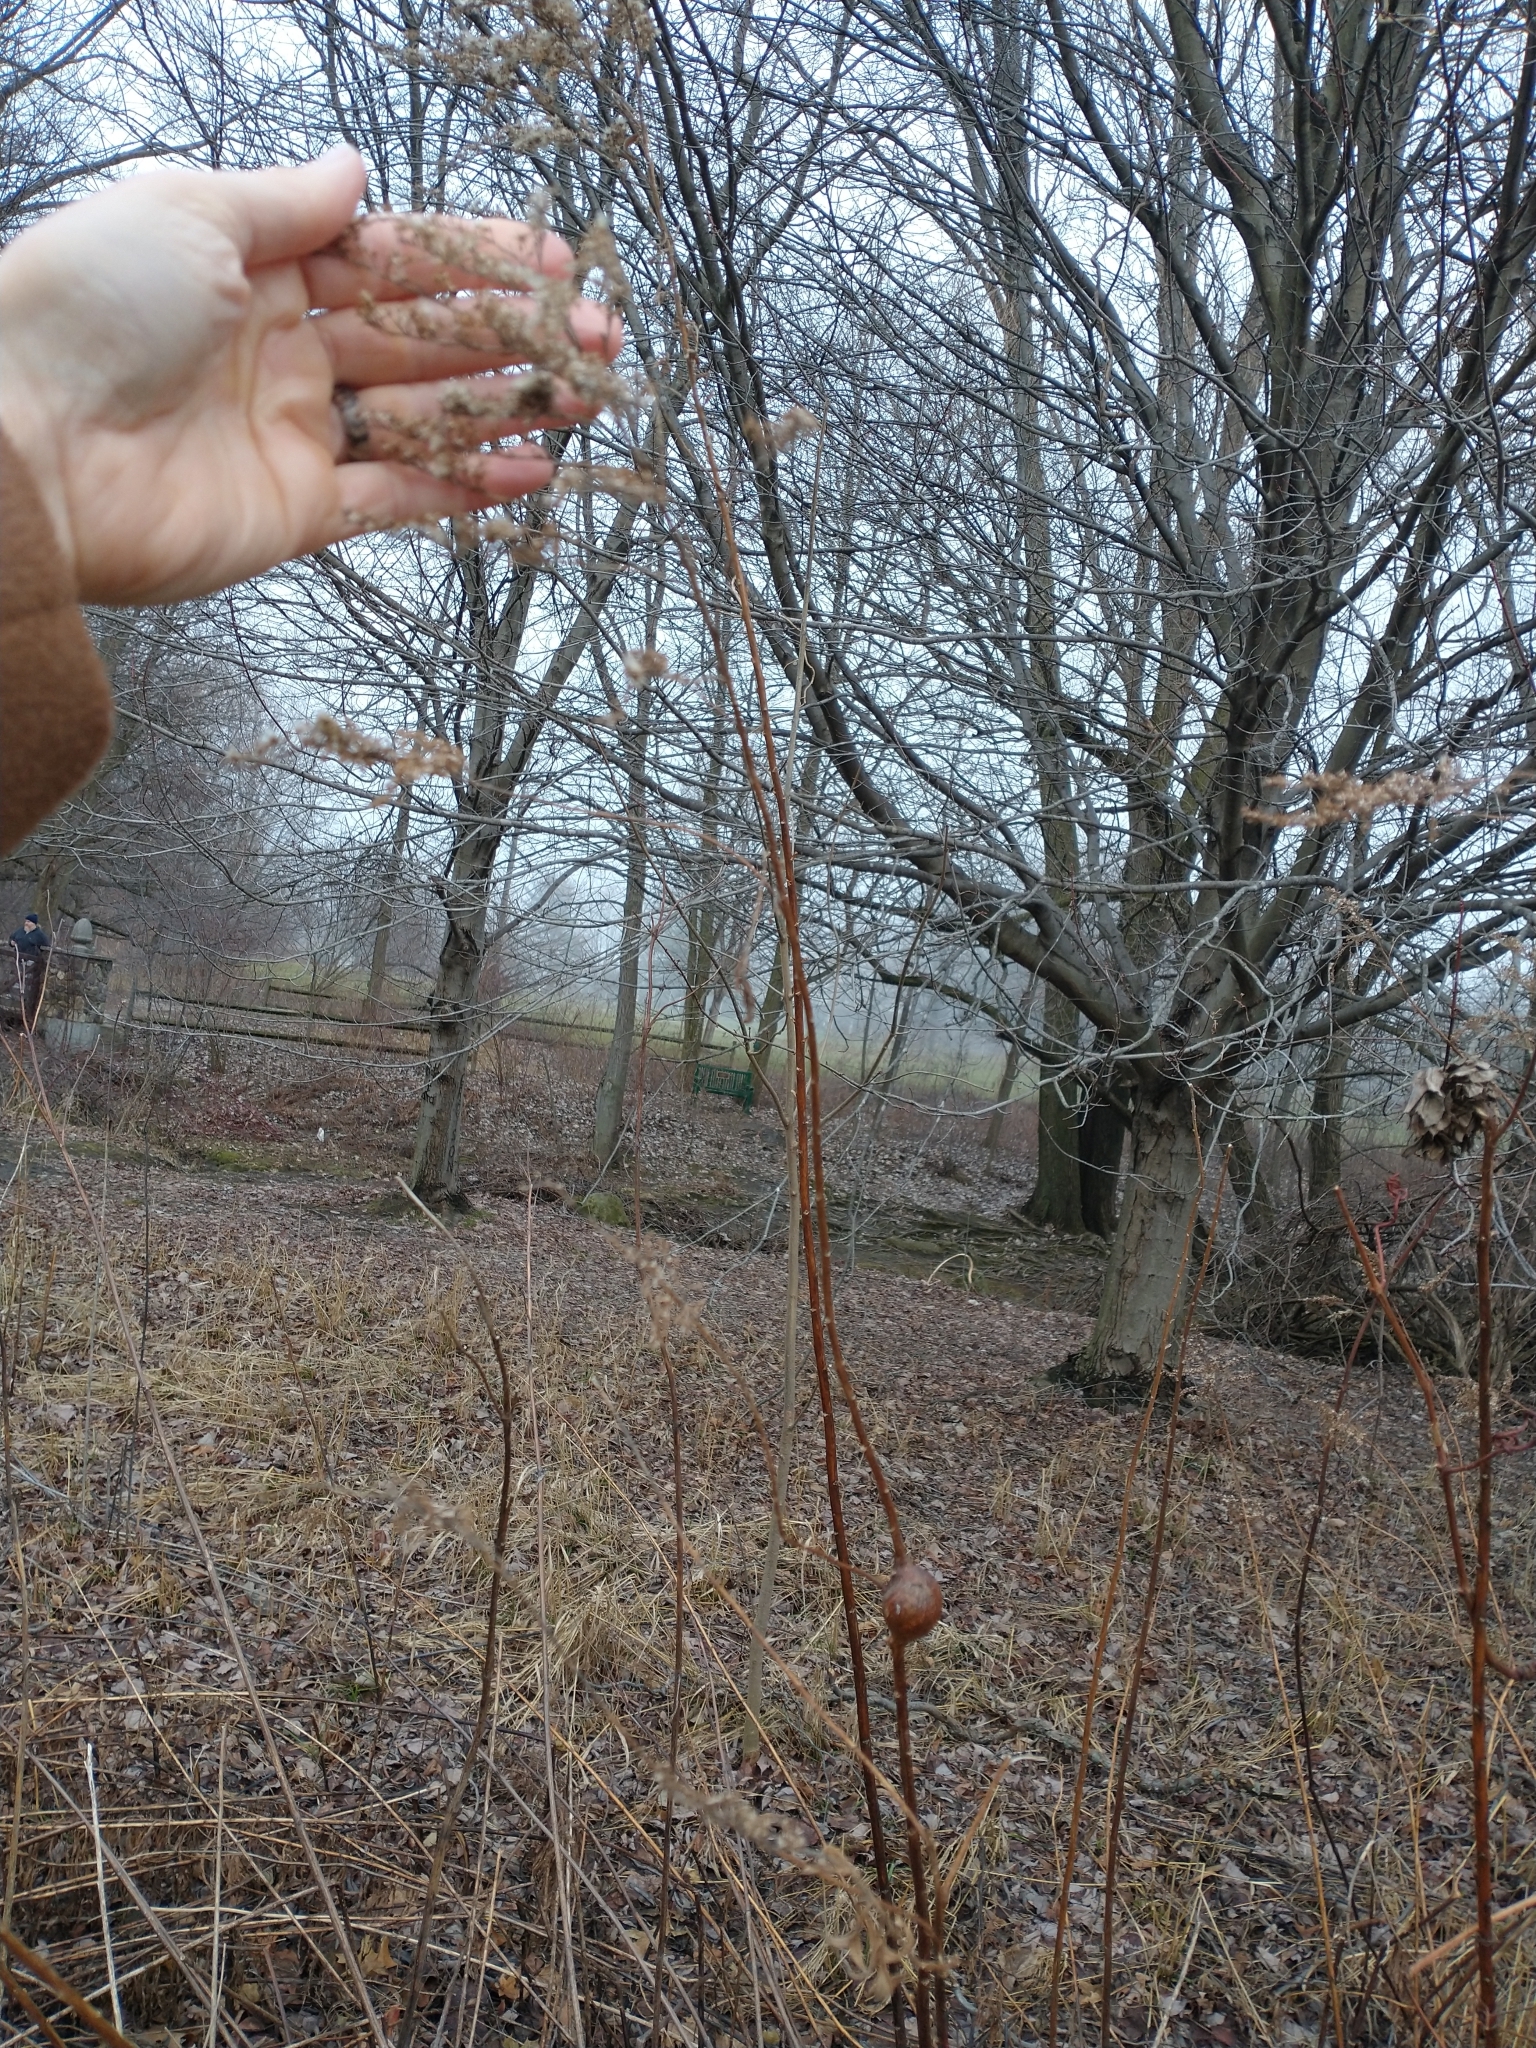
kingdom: Animalia
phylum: Arthropoda
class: Insecta
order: Diptera
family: Tephritidae
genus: Eurosta
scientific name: Eurosta solidaginis
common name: Goldenrod gall fly
